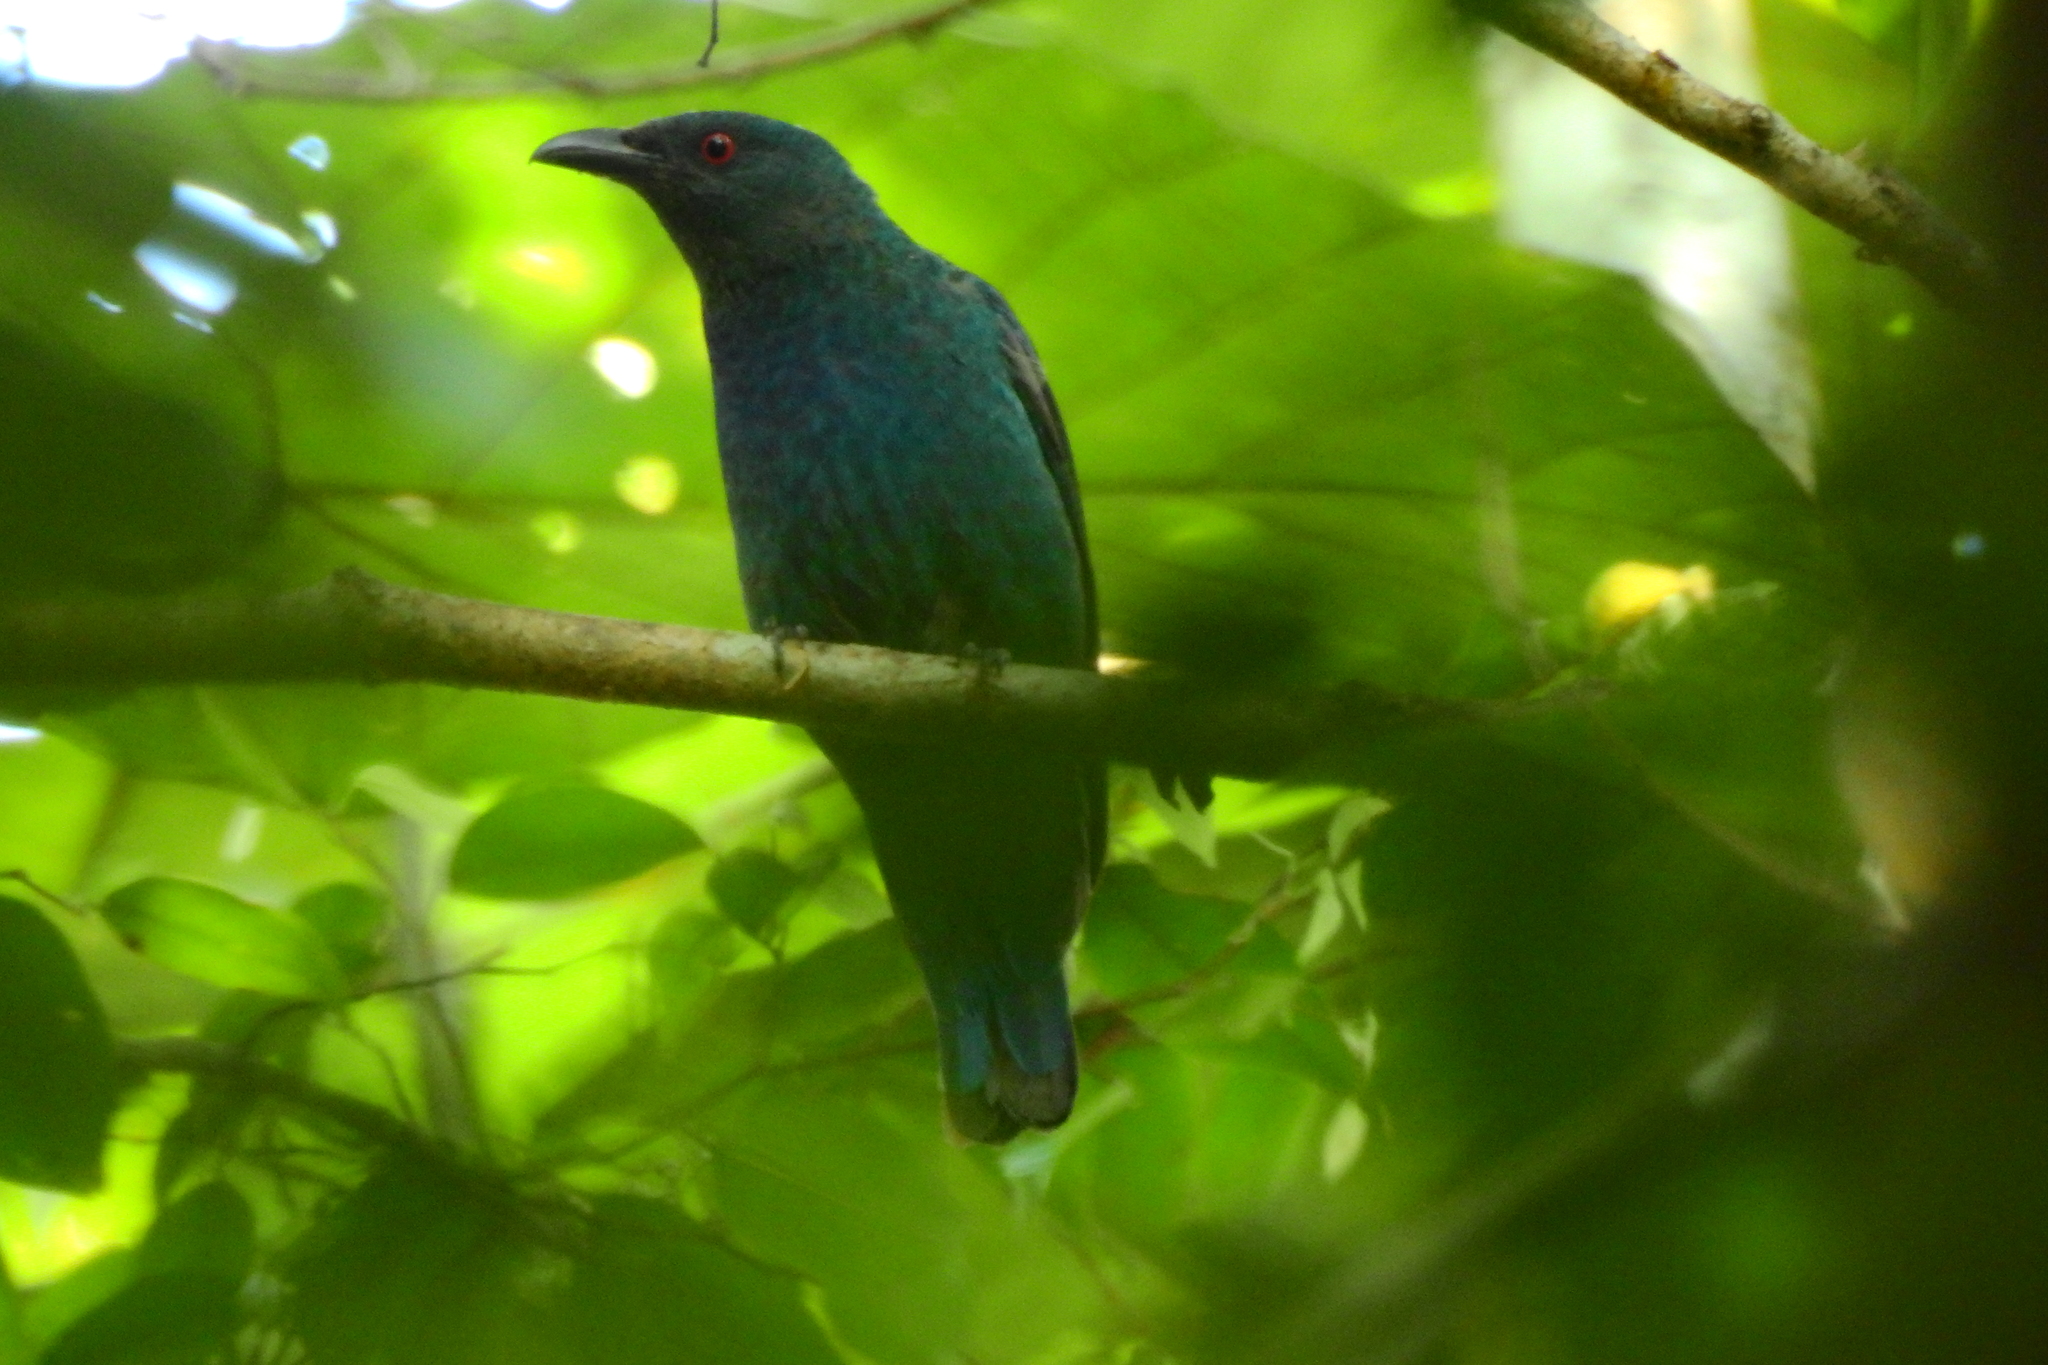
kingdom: Animalia
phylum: Chordata
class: Aves
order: Passeriformes
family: Irenidae
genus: Irena
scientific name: Irena puella
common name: Asian fairy-bluebird
